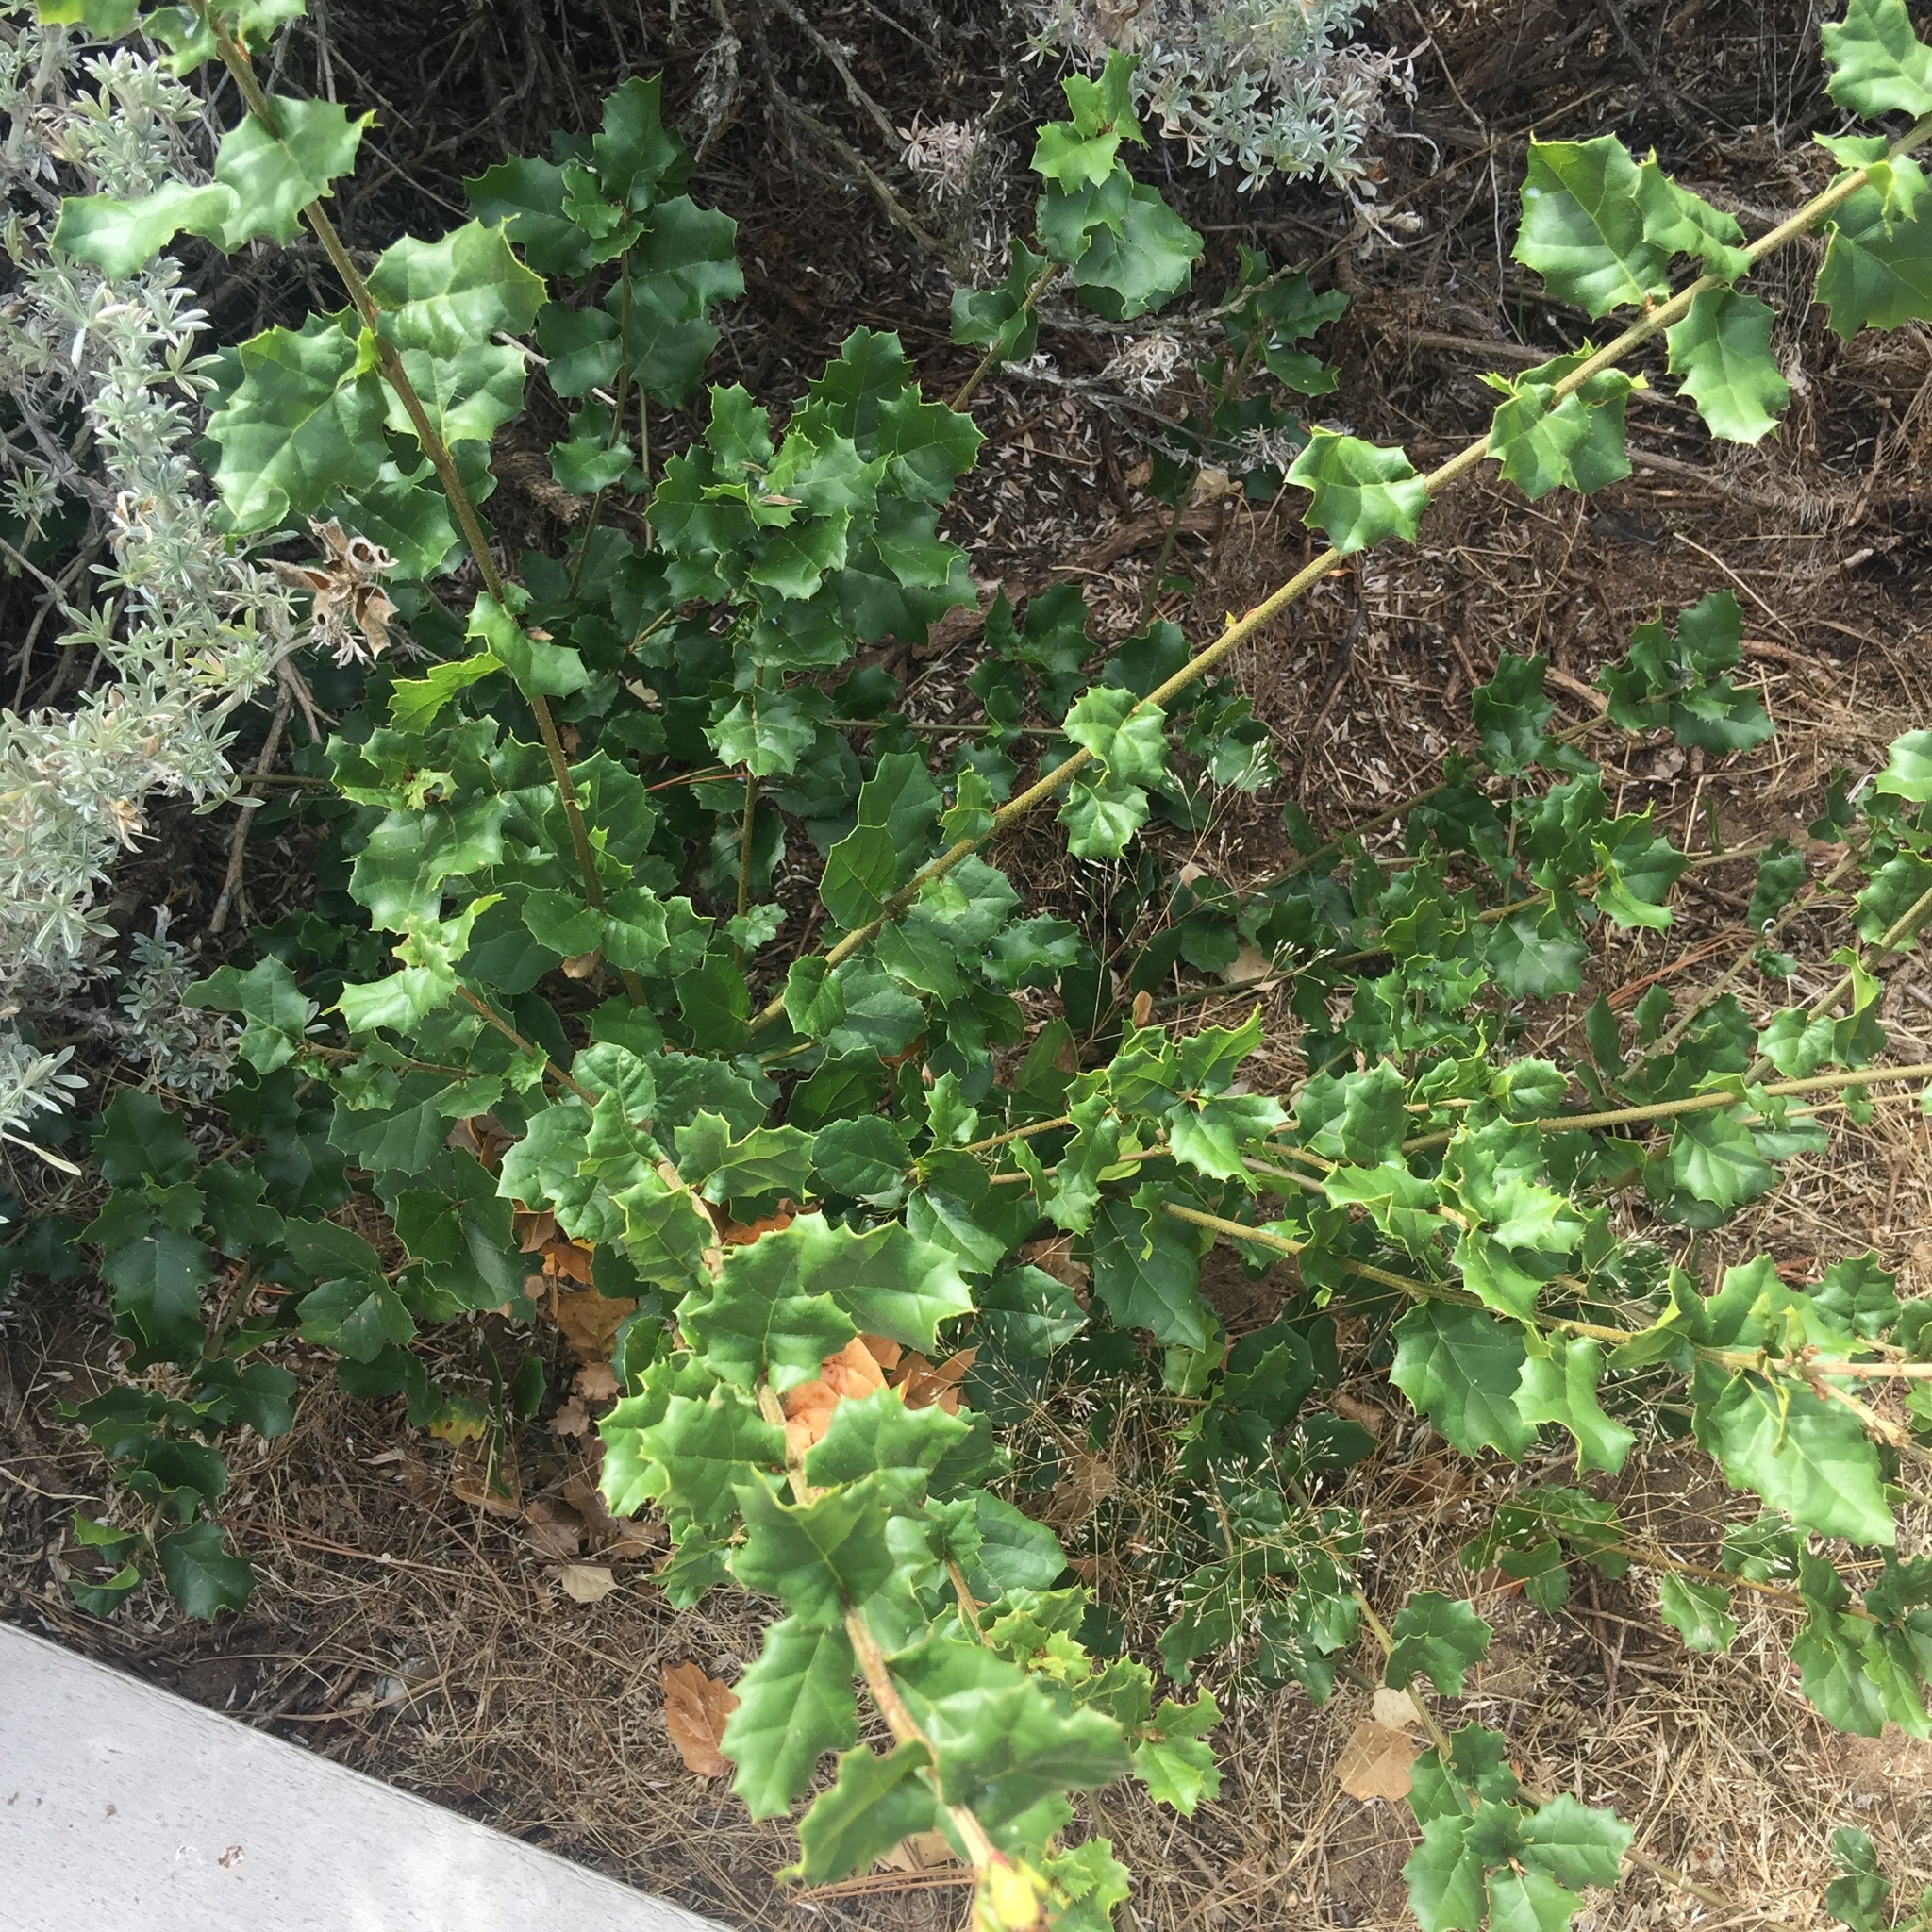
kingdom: Plantae
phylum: Tracheophyta
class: Magnoliopsida
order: Fagales
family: Fagaceae
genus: Quercus
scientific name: Quercus agrifolia
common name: California live oak
